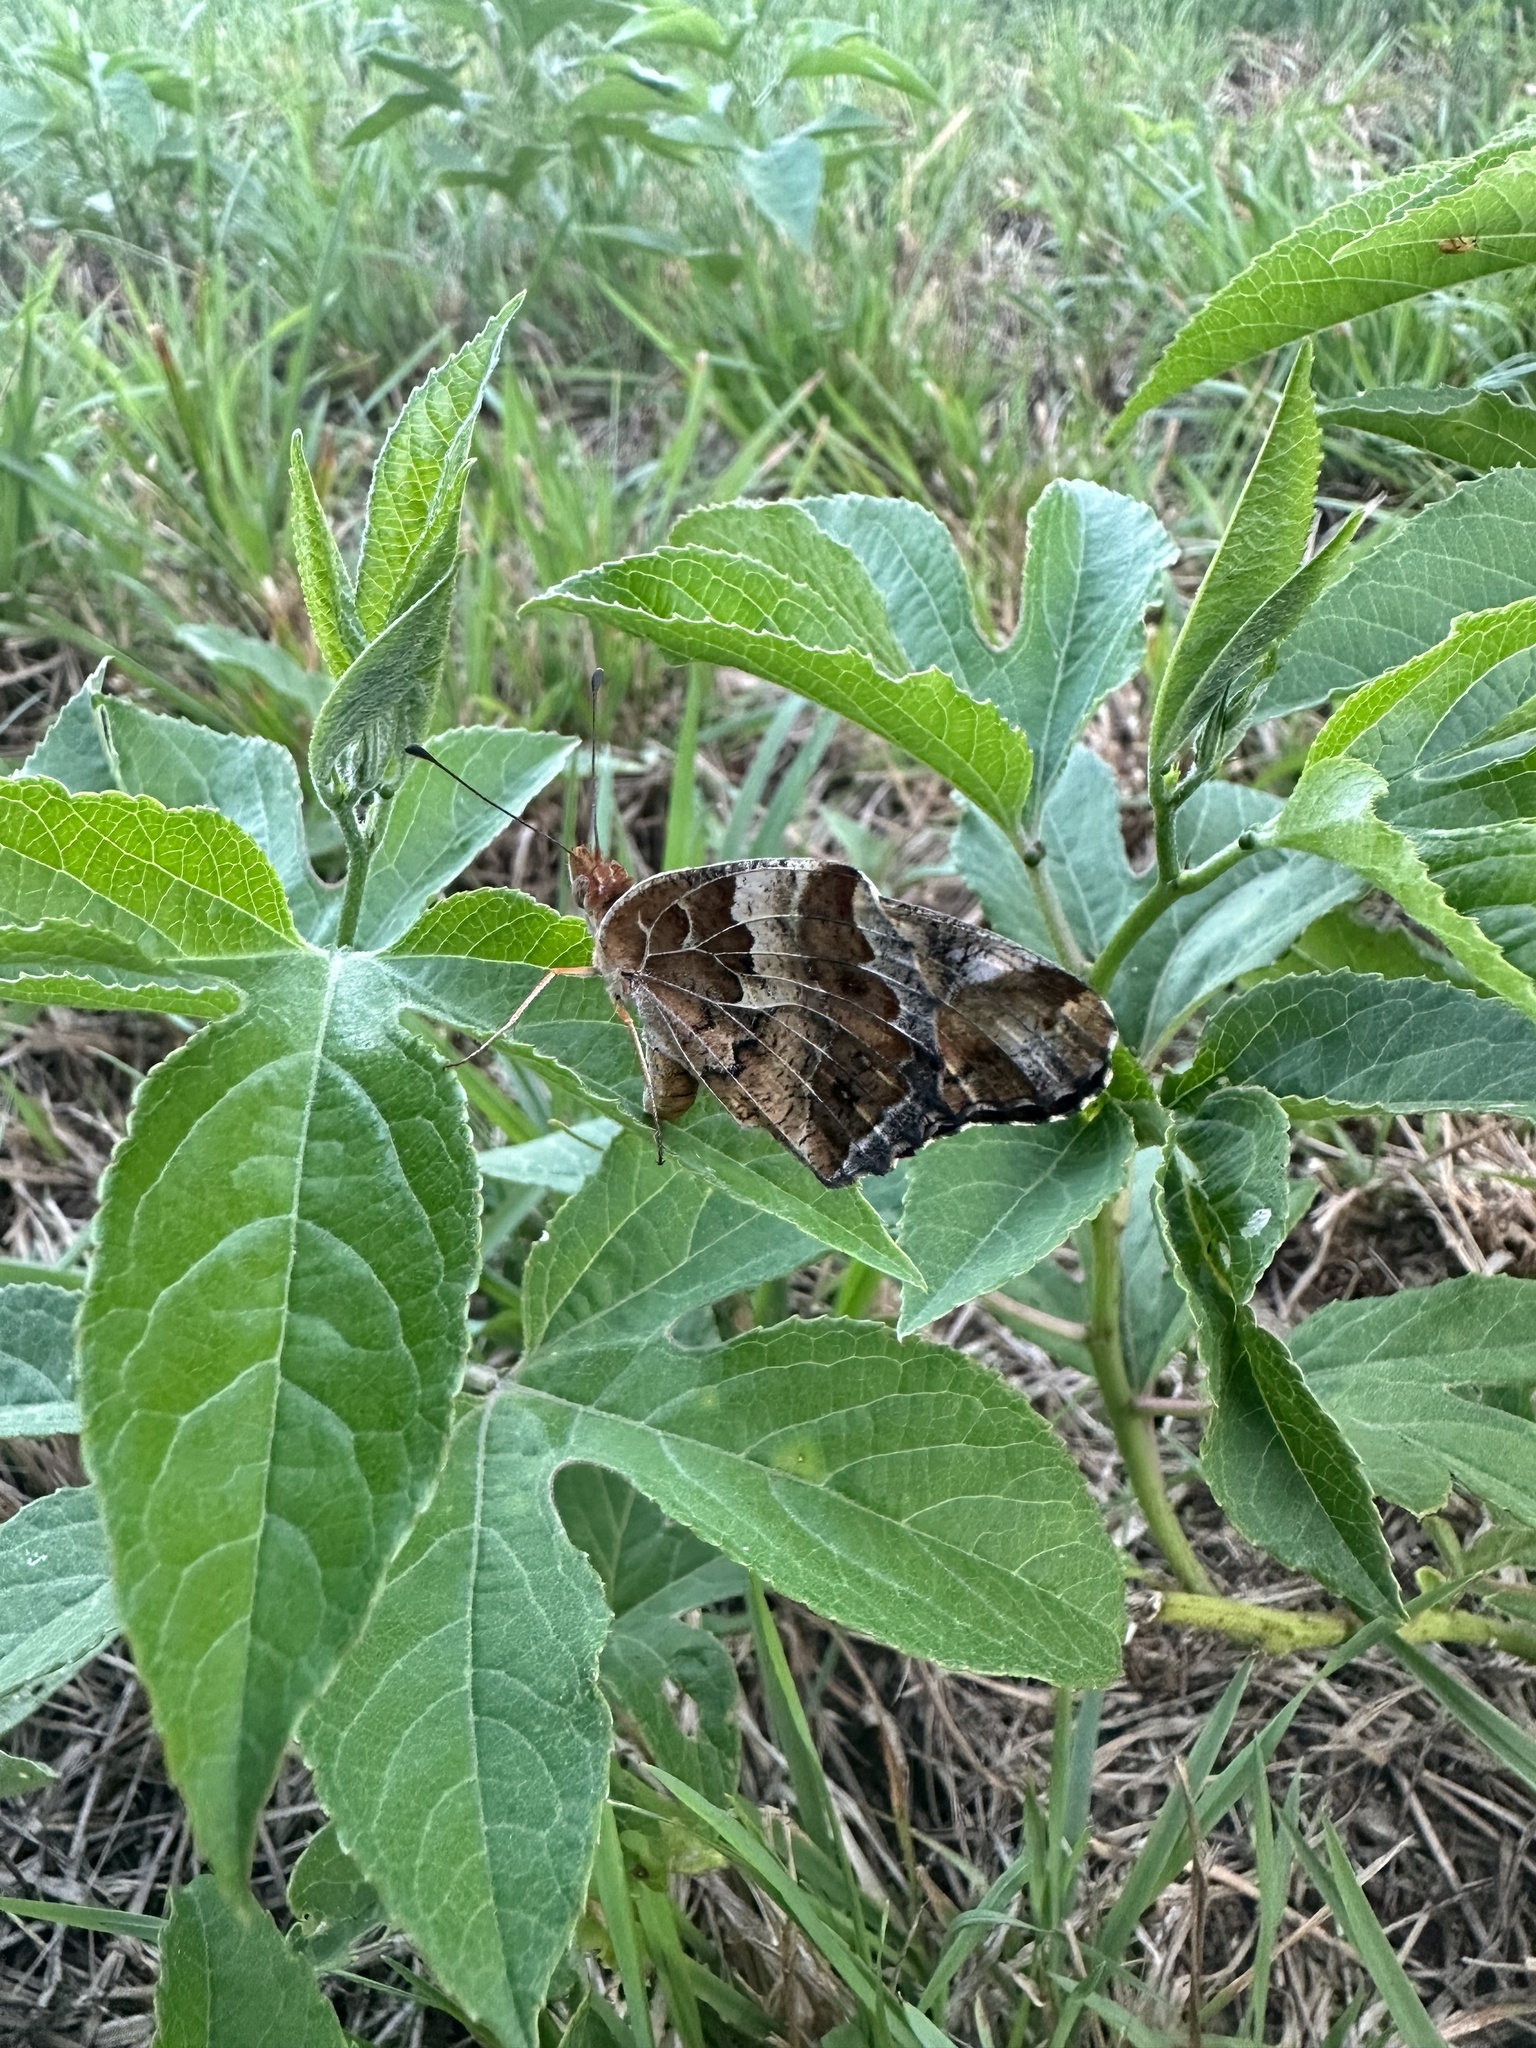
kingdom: Animalia
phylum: Arthropoda
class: Insecta
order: Lepidoptera
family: Nymphalidae
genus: Euptoieta
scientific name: Euptoieta claudia
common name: Variegated fritillary
